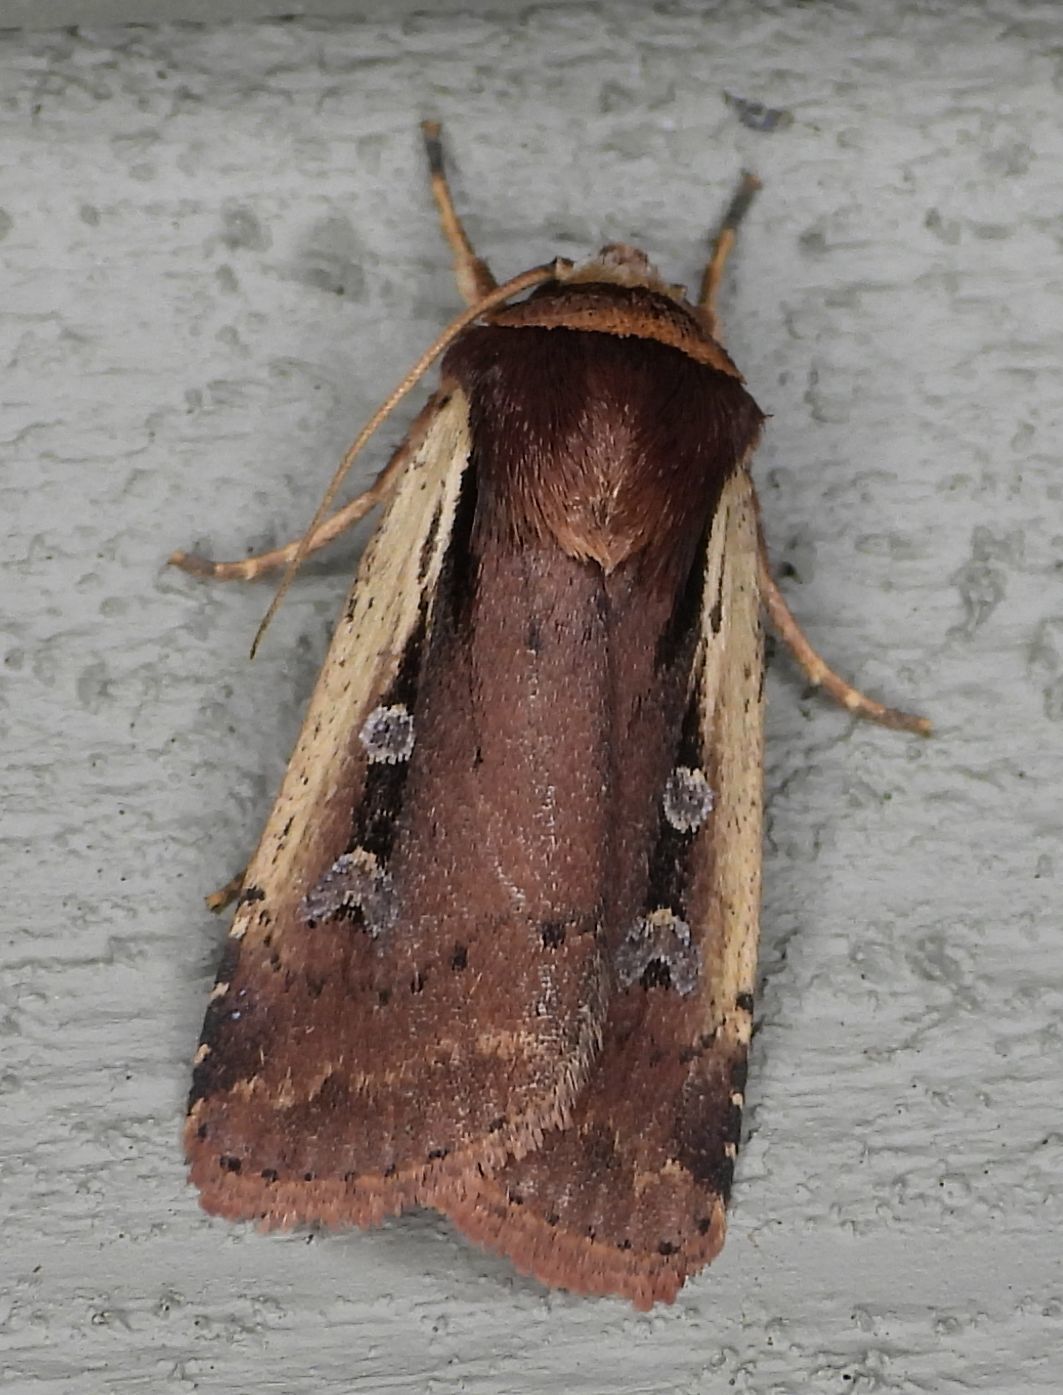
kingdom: Animalia
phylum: Arthropoda
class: Insecta
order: Lepidoptera
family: Noctuidae
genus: Ochropleura
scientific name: Ochropleura implecta
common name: Flame-shouldered dart
